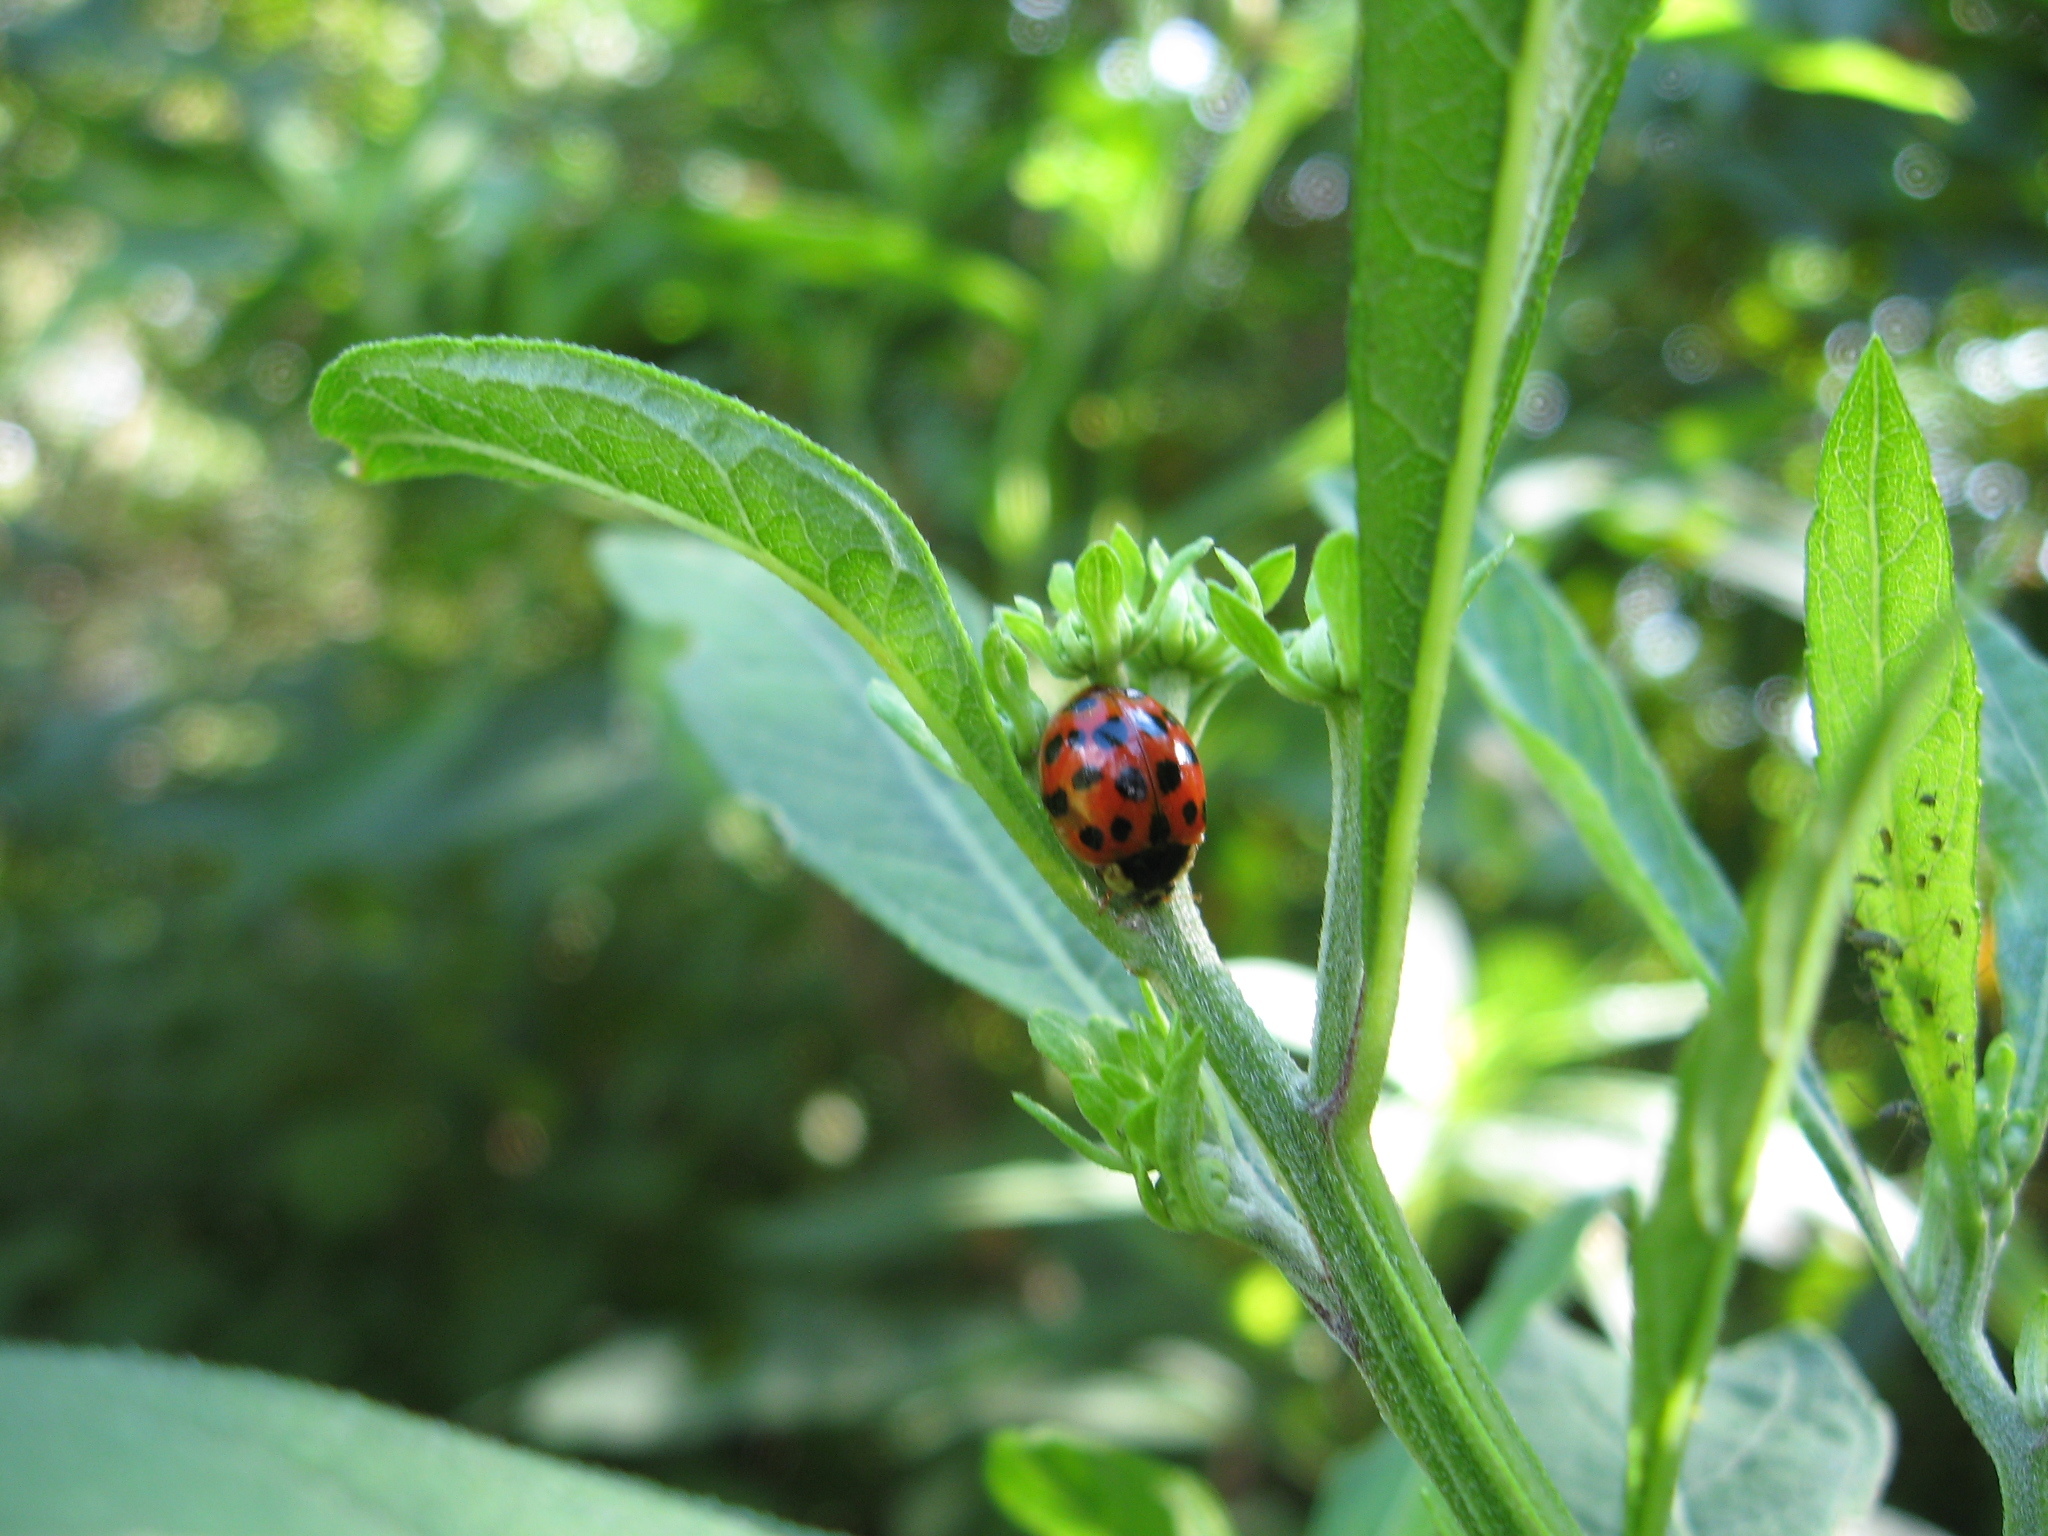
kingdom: Animalia
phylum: Arthropoda
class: Insecta
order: Coleoptera
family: Coccinellidae
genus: Harmonia
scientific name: Harmonia axyridis
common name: Harlequin ladybird
